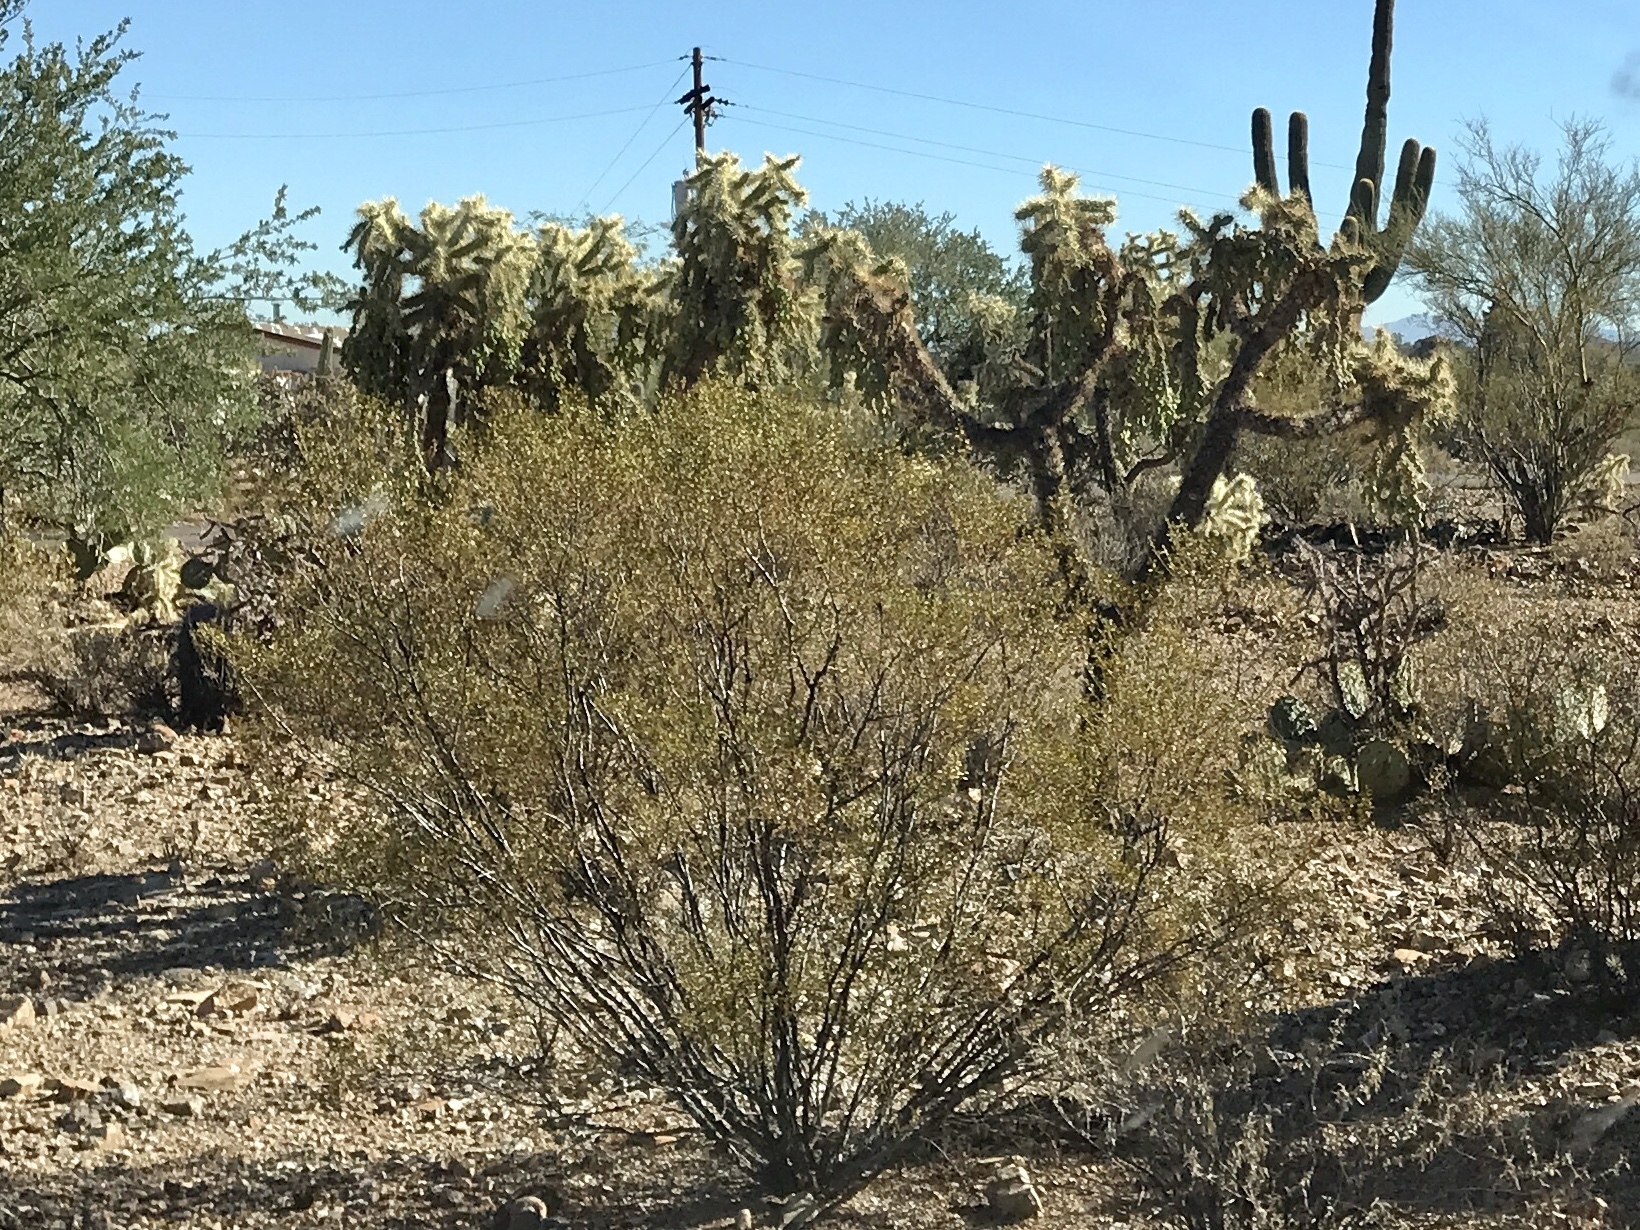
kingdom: Plantae
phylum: Tracheophyta
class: Magnoliopsida
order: Zygophyllales
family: Zygophyllaceae
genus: Larrea
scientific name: Larrea tridentata
